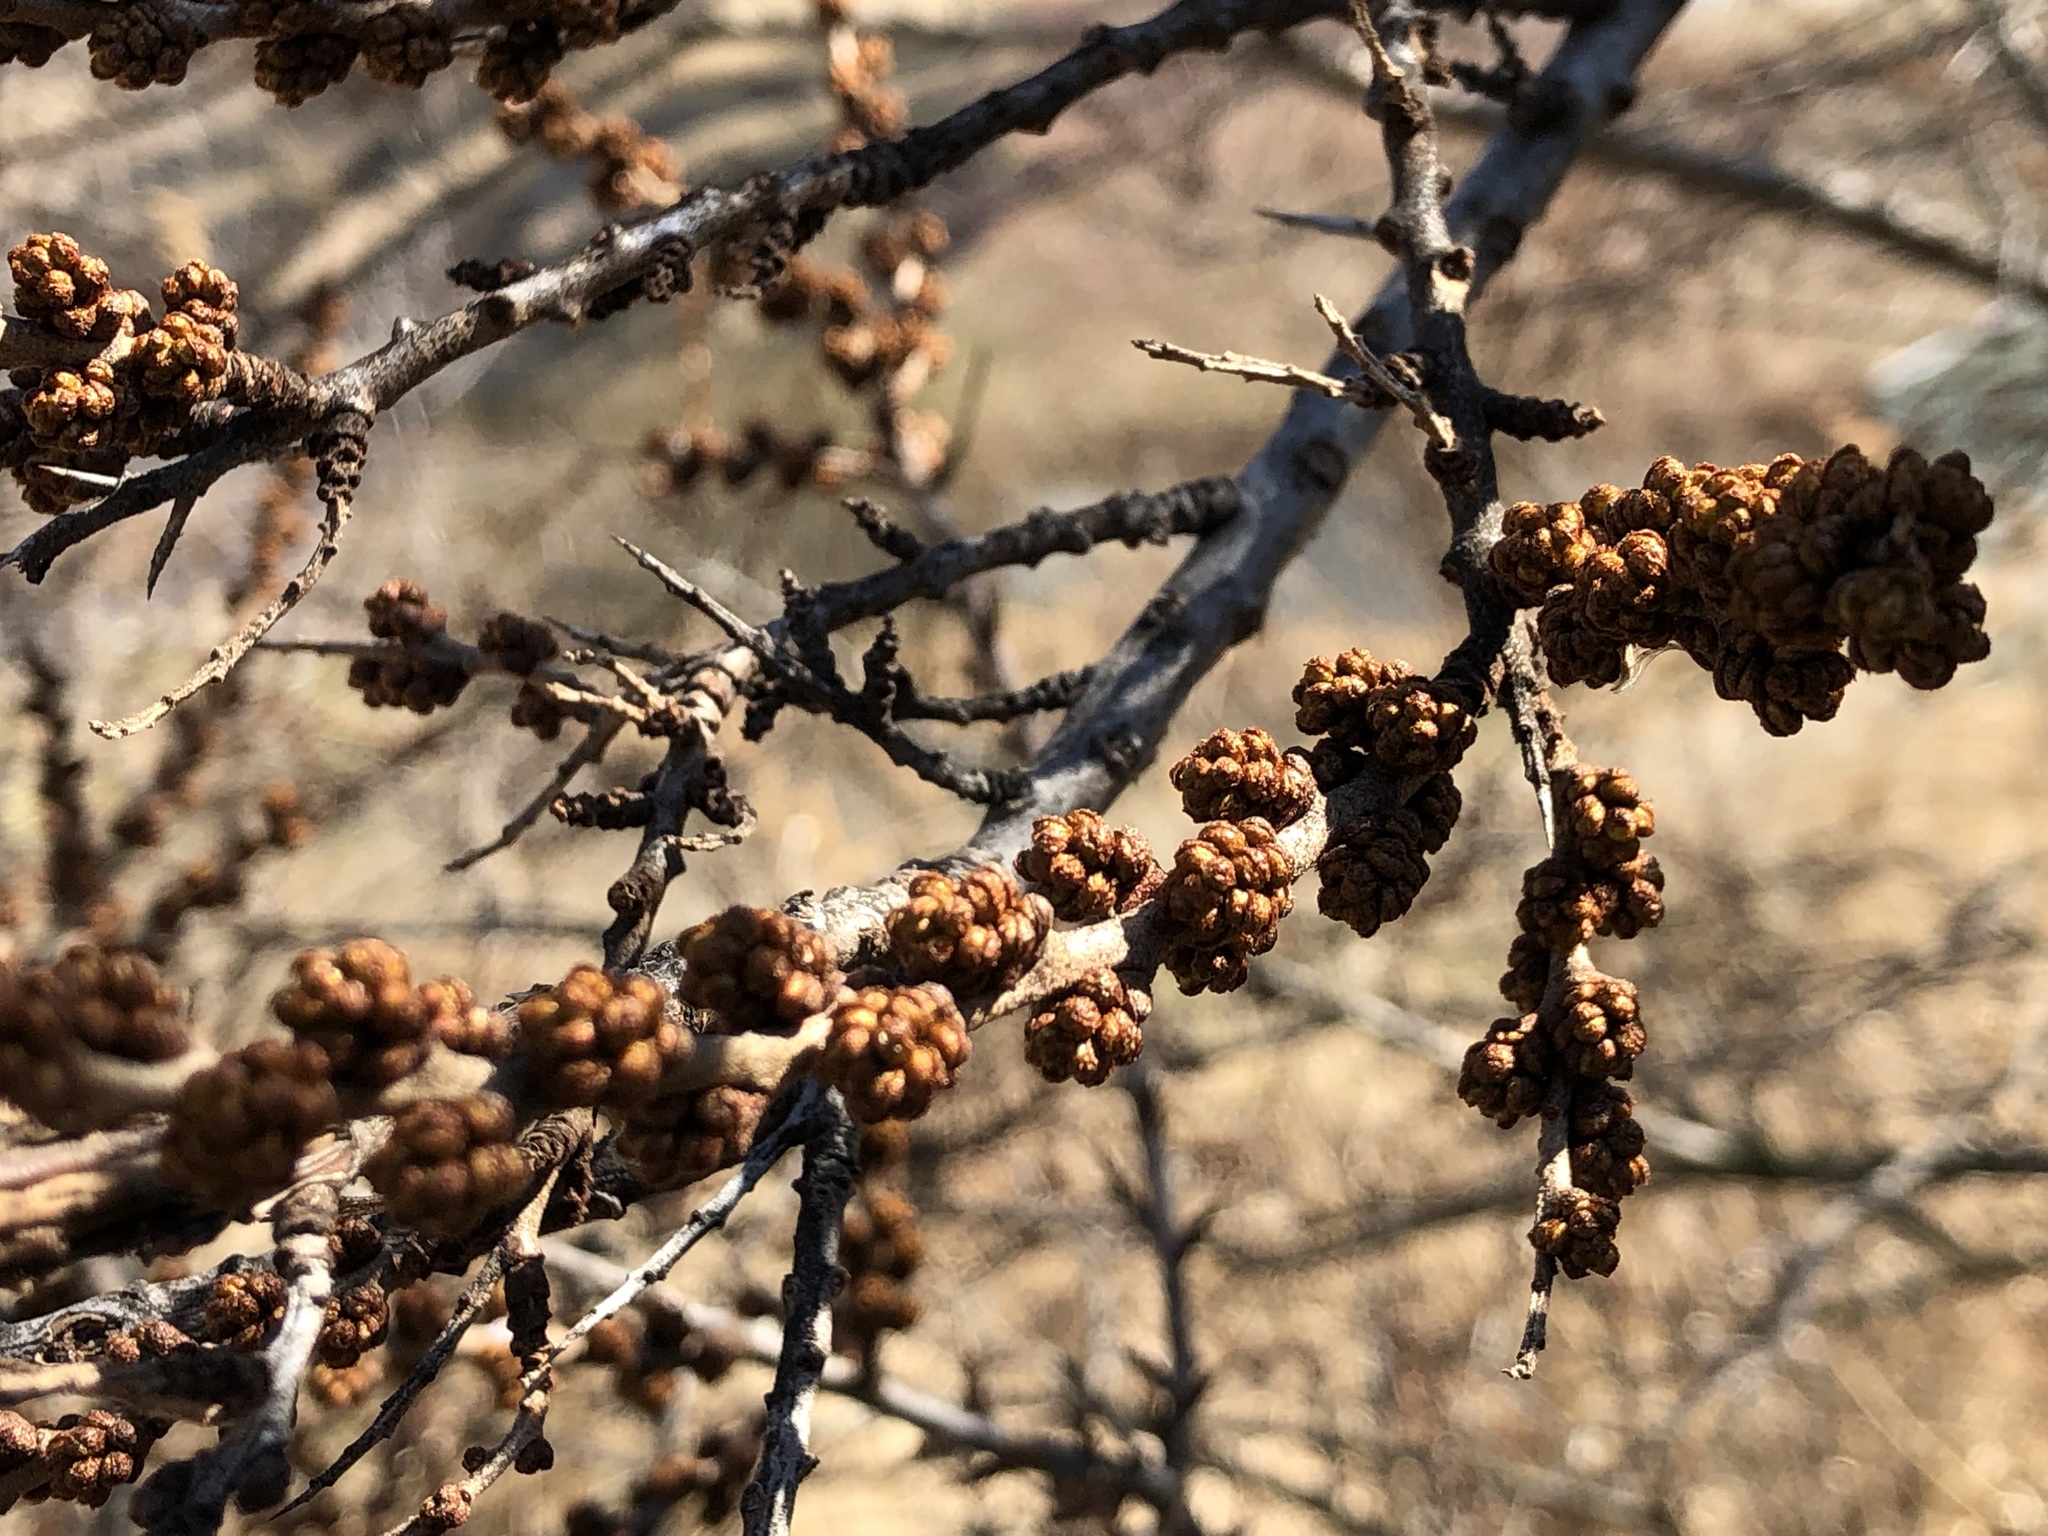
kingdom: Plantae
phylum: Tracheophyta
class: Magnoliopsida
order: Rosales
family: Elaeagnaceae
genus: Hippophae
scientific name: Hippophae rhamnoides
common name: Sea-buckthorn
